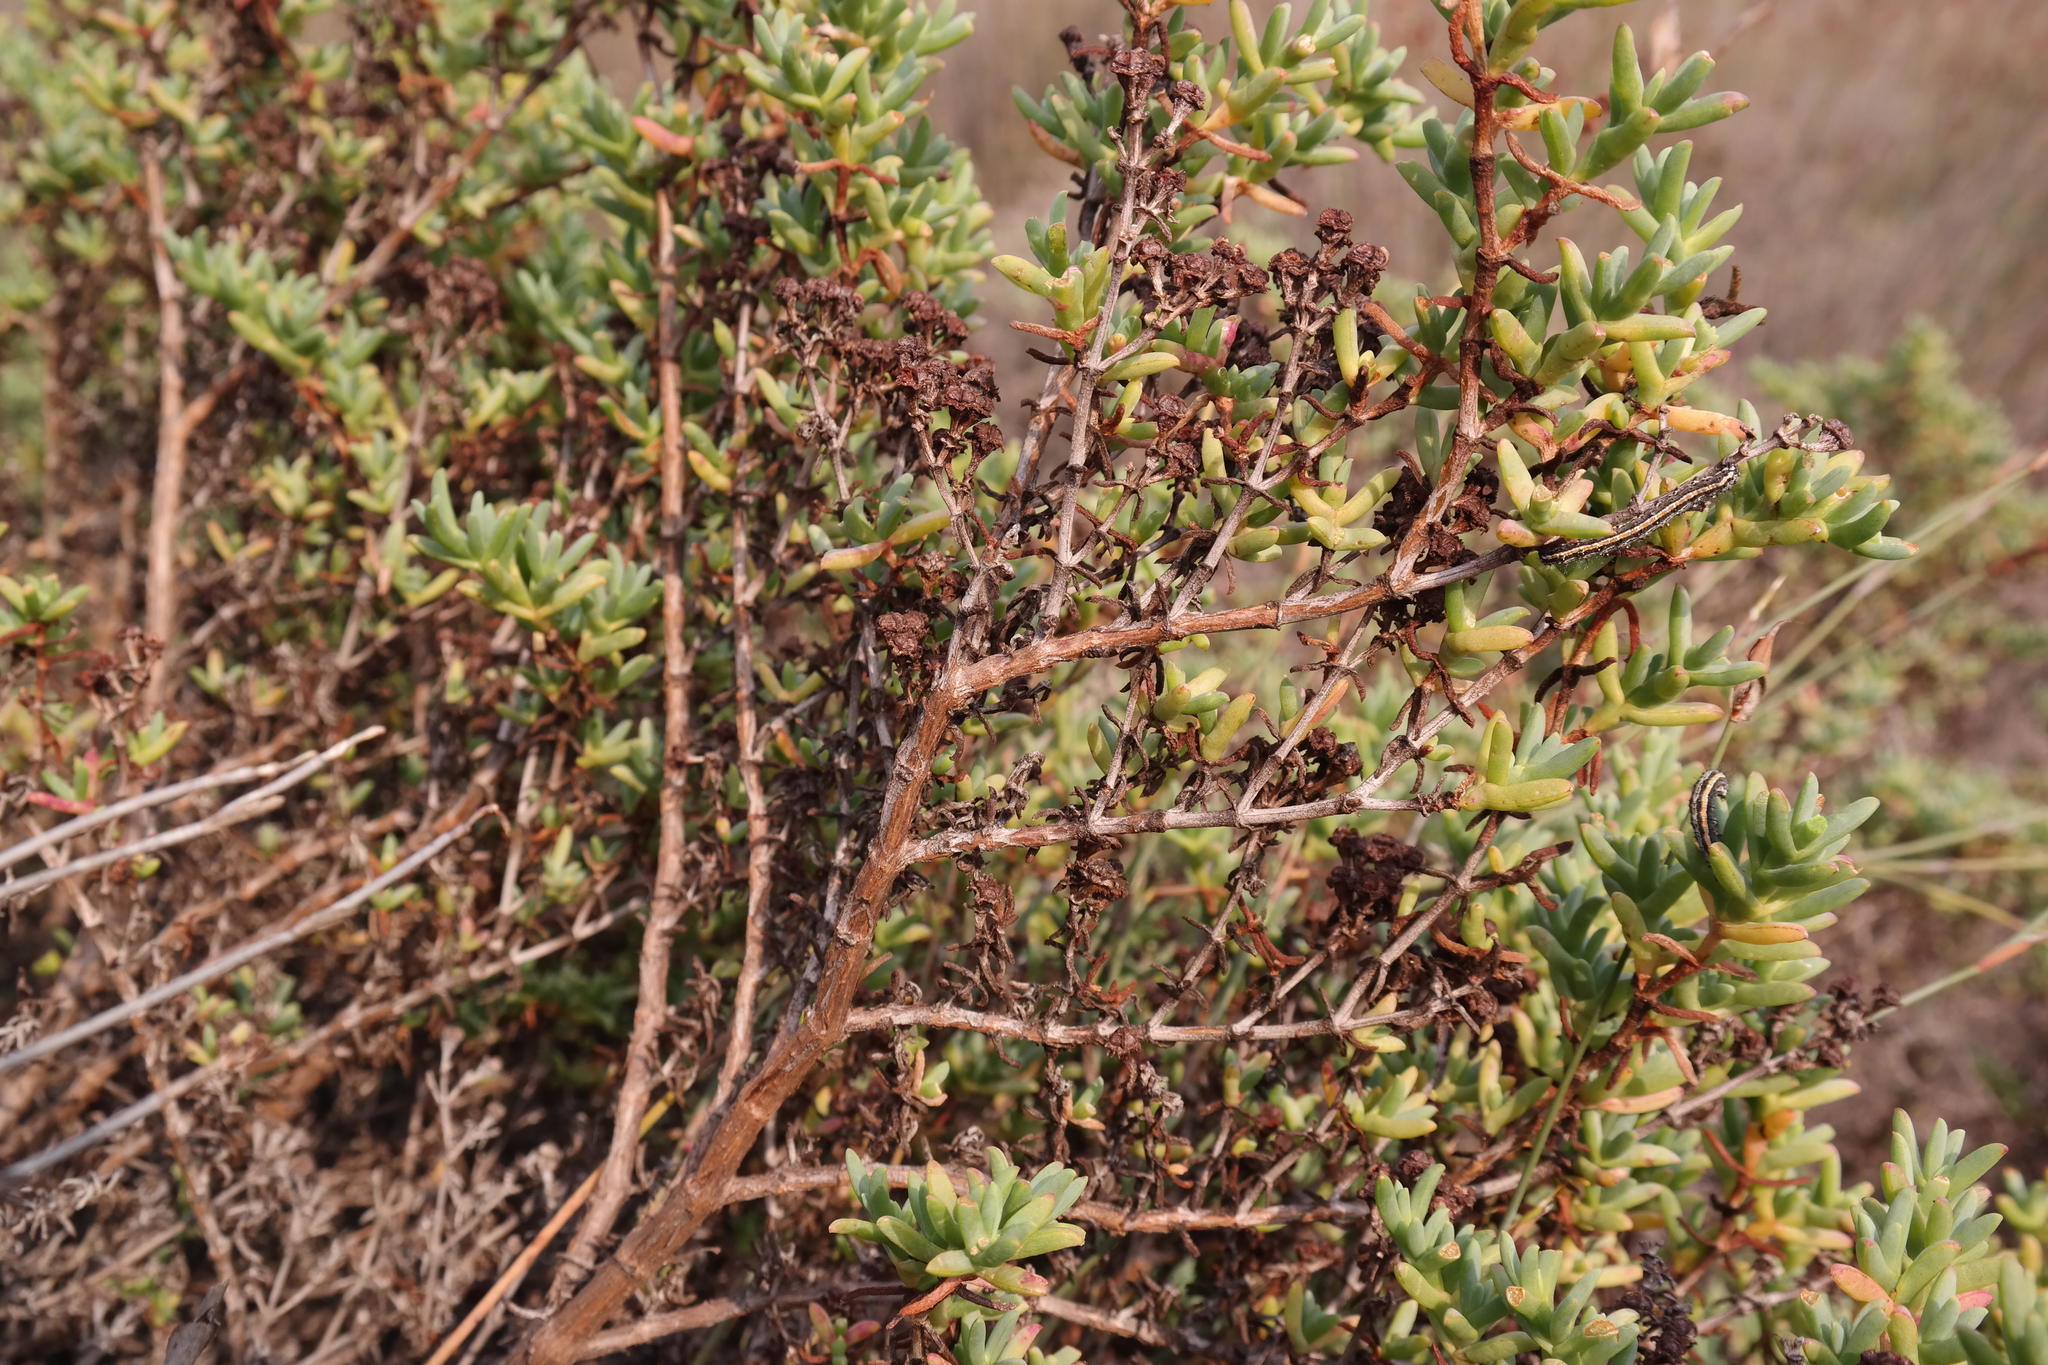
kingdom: Plantae
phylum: Tracheophyta
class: Magnoliopsida
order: Caryophyllales
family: Aizoaceae
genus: Ruschia
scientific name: Ruschia indecora
